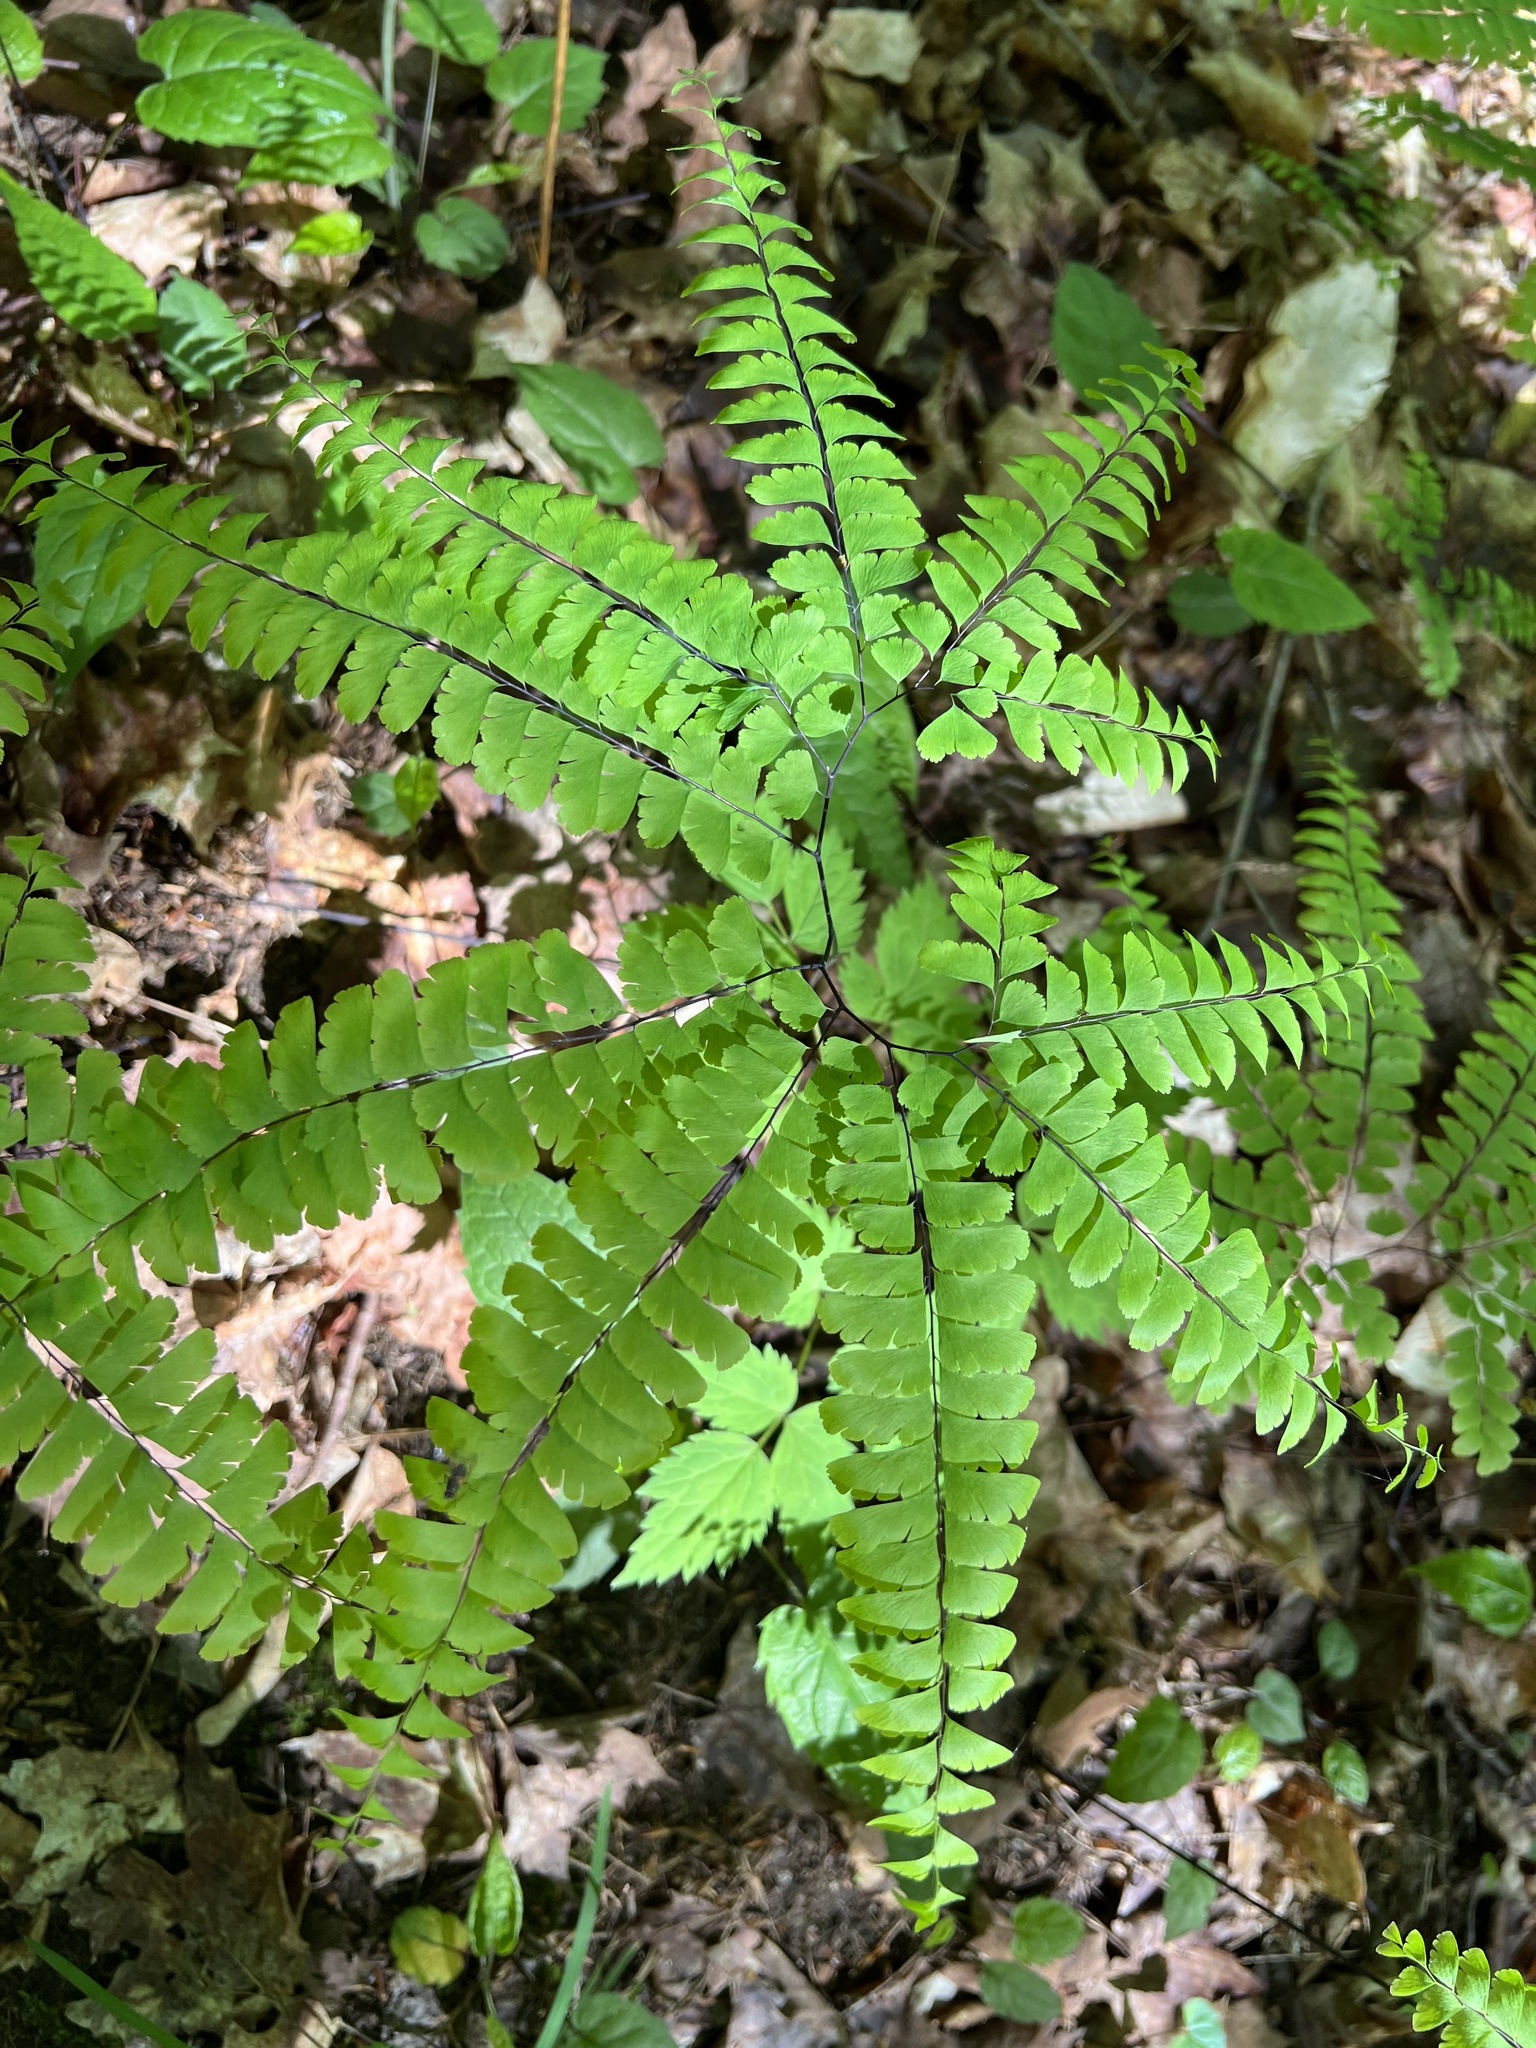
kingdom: Plantae
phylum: Tracheophyta
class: Polypodiopsida
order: Polypodiales
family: Pteridaceae
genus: Adiantum
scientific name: Adiantum pedatum
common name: Five-finger fern
